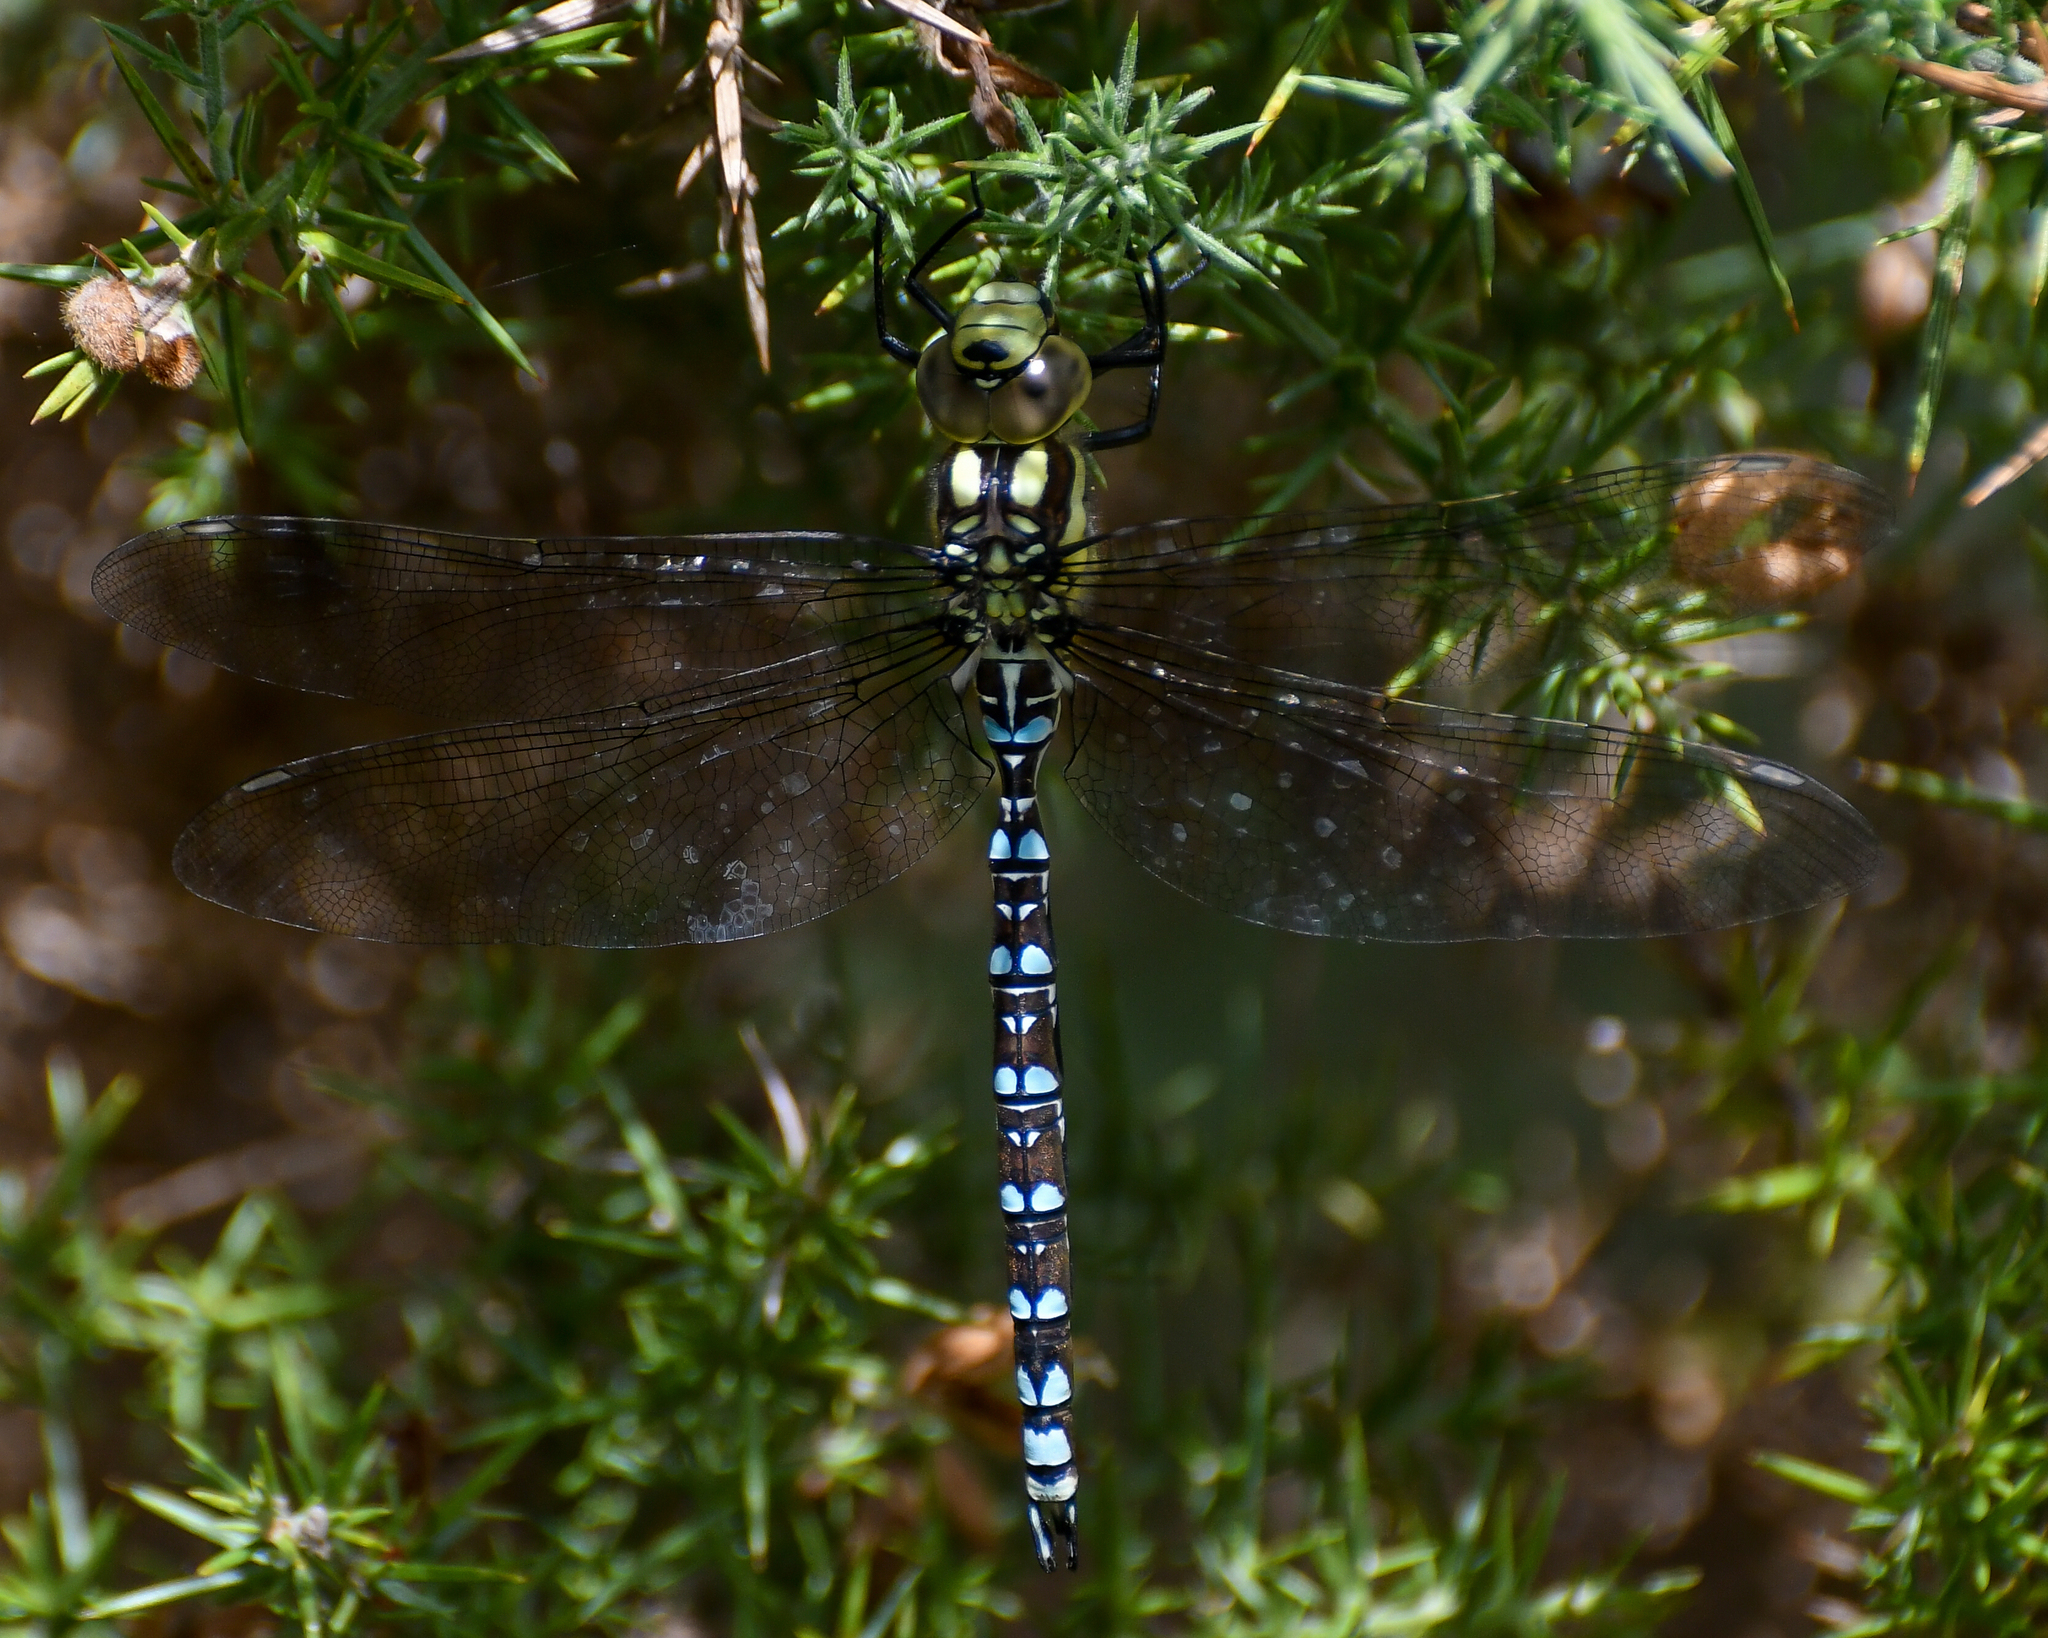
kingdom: Animalia
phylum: Arthropoda
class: Insecta
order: Odonata
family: Aeshnidae
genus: Aeshna
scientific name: Aeshna cyanea
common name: Southern hawker
